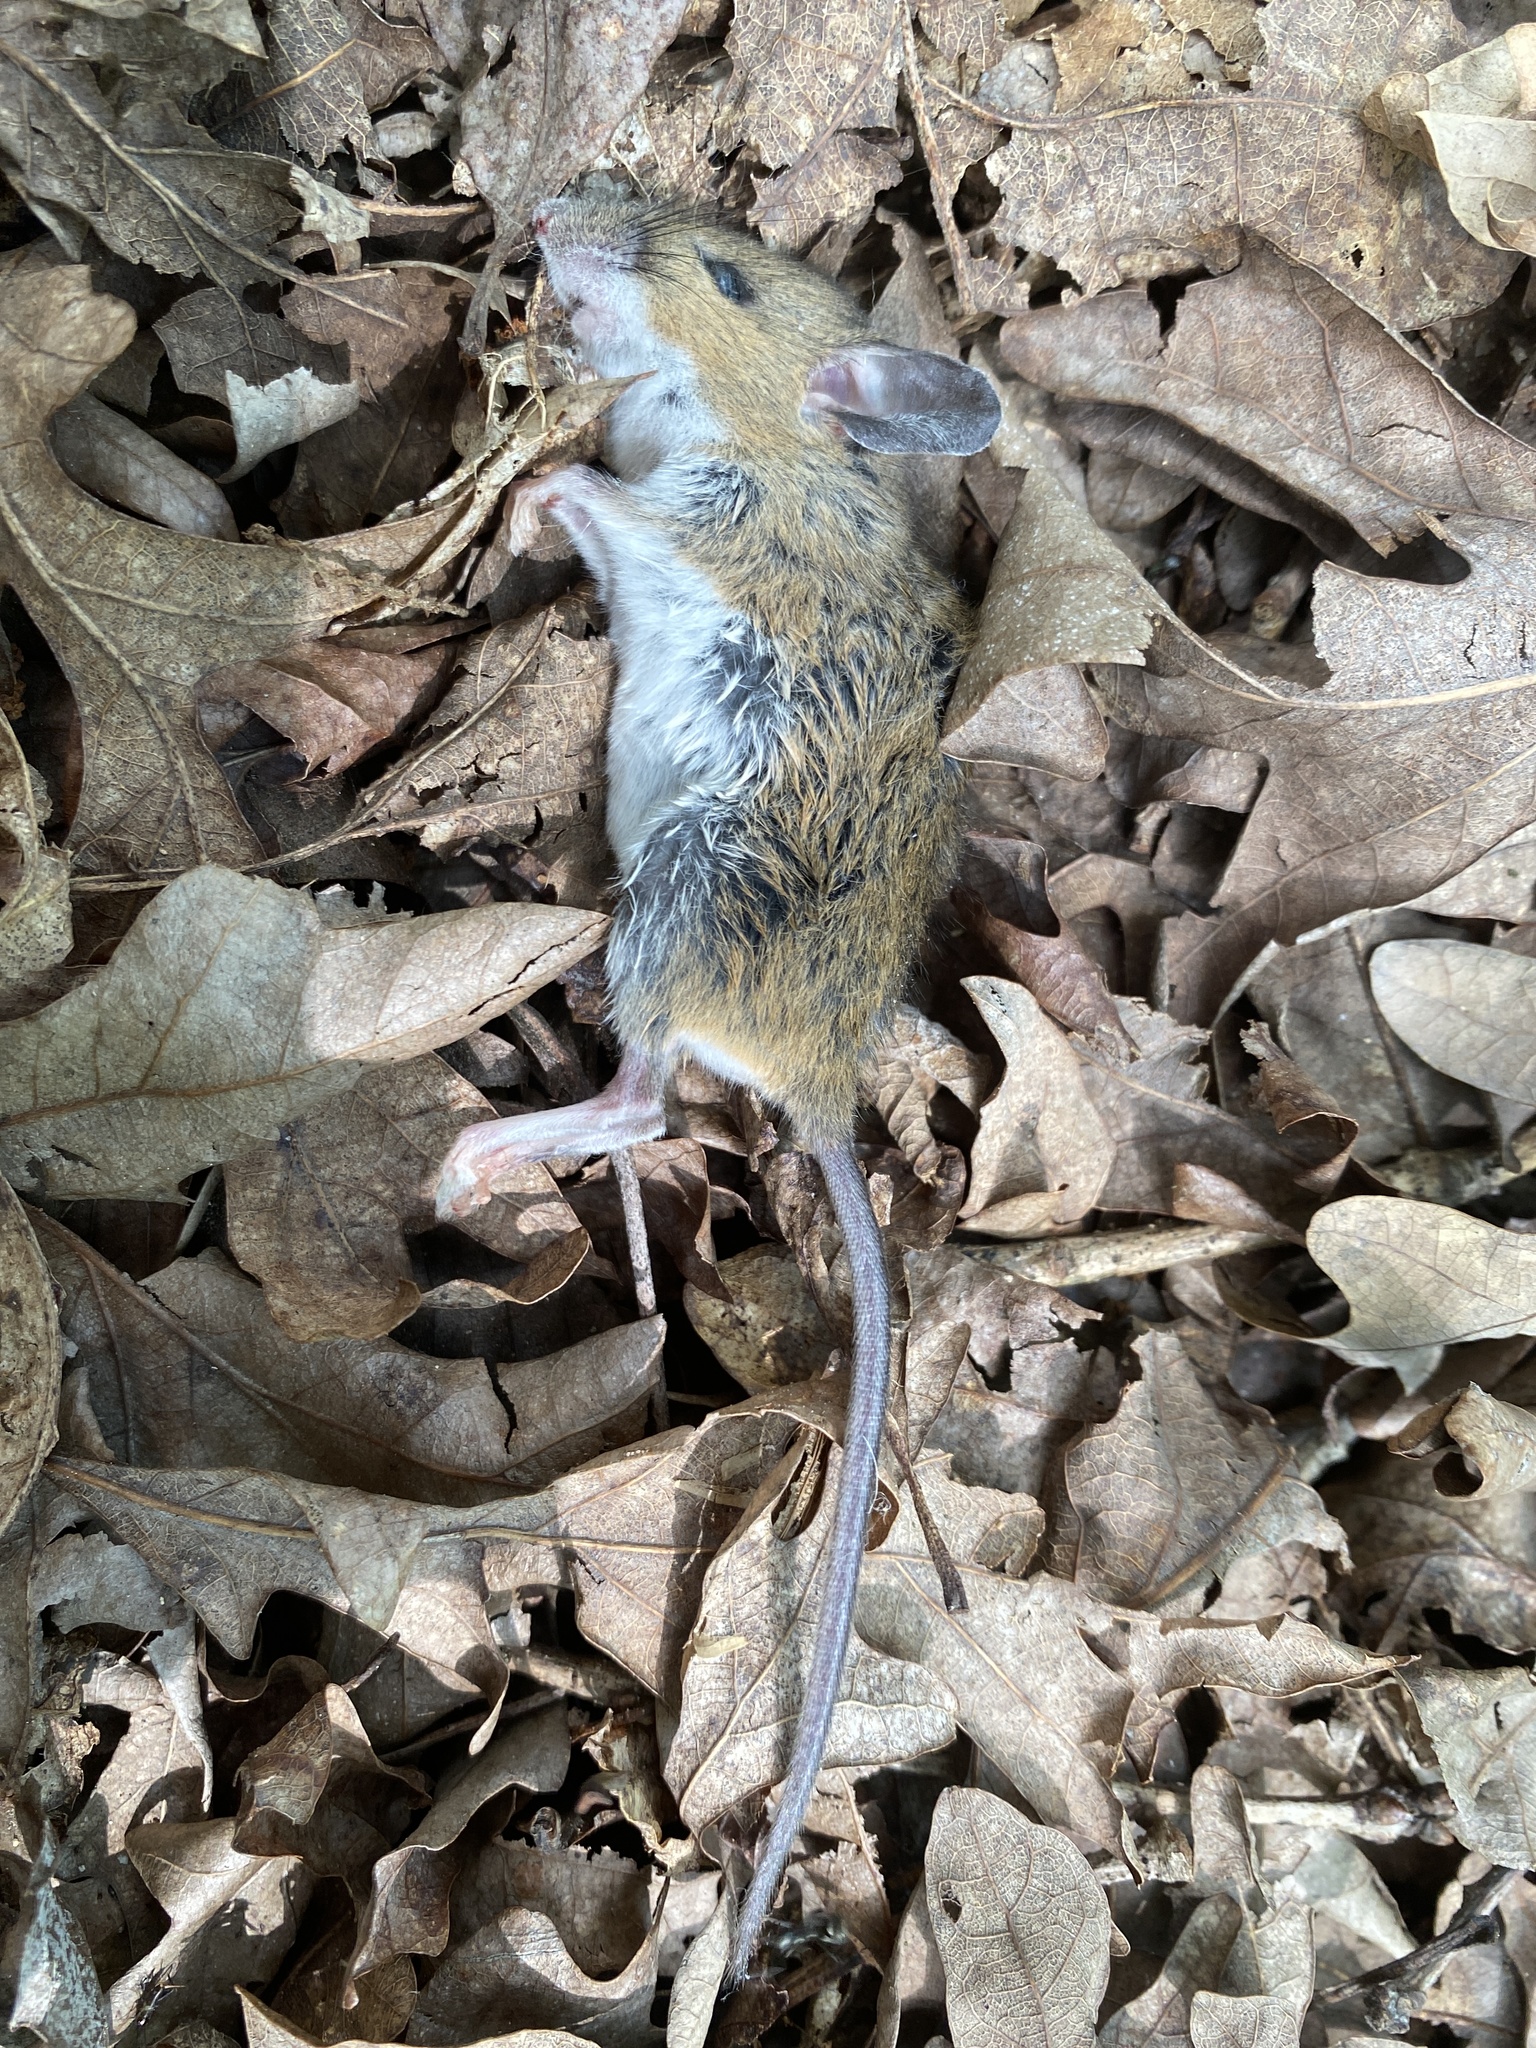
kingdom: Animalia
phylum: Chordata
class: Mammalia
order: Rodentia
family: Cricetidae
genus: Peromyscus
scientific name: Peromyscus leucopus
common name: White-footed deermouse
